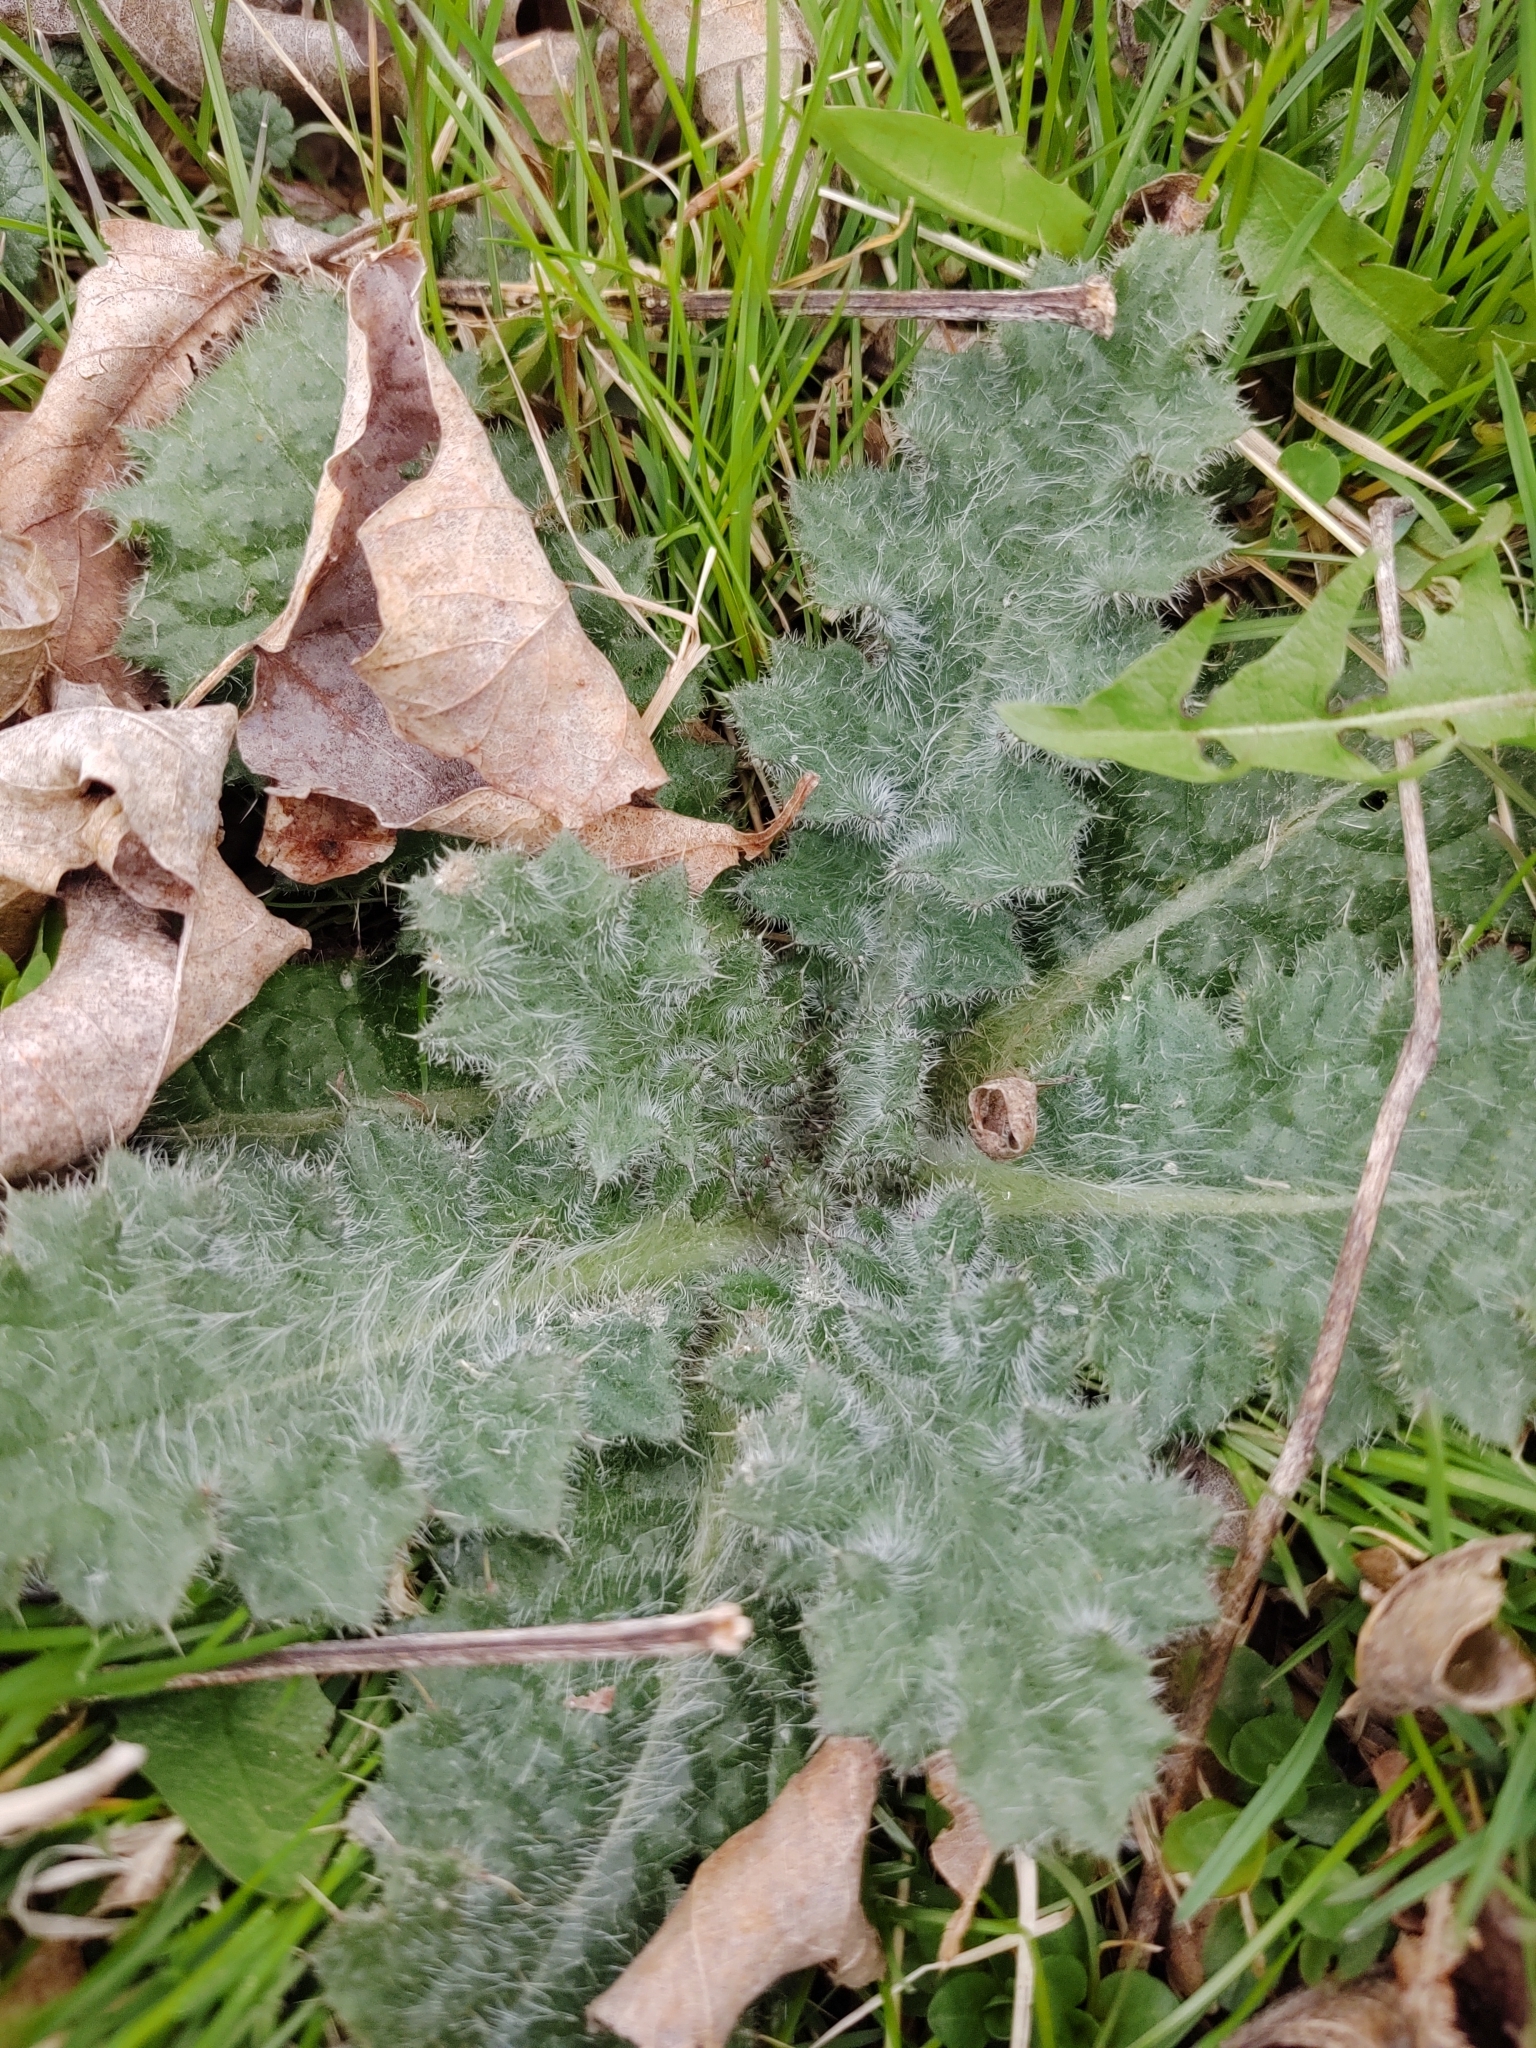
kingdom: Plantae
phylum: Tracheophyta
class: Magnoliopsida
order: Asterales
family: Asteraceae
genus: Cirsium
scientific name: Cirsium vulgare
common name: Bull thistle
